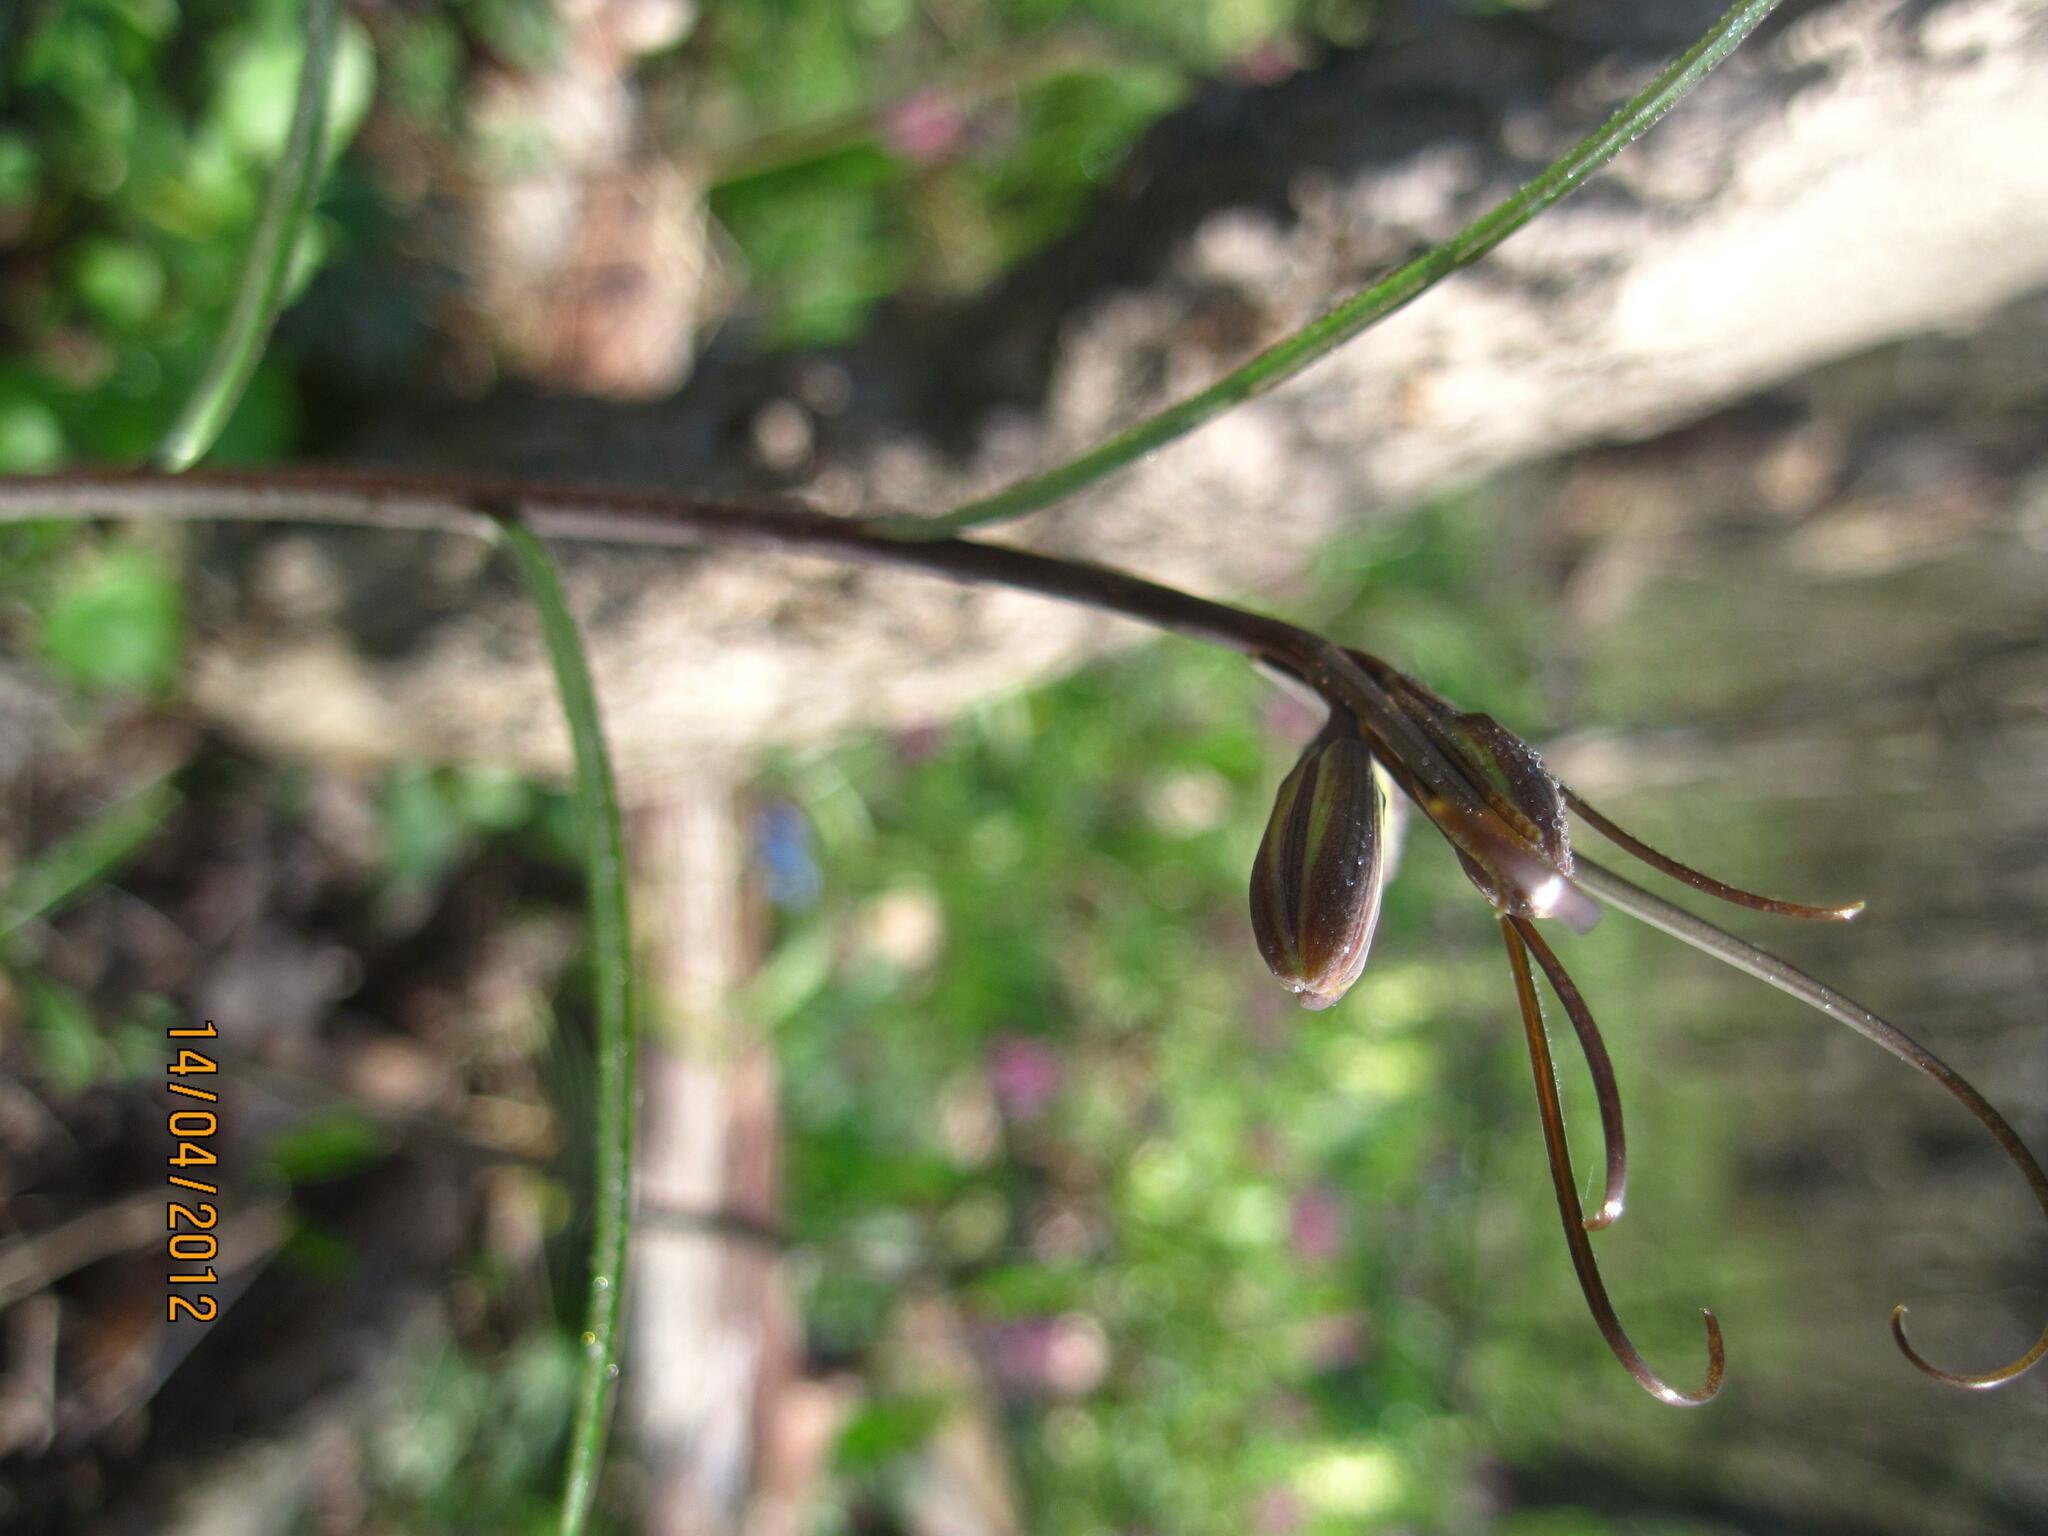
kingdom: Plantae
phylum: Tracheophyta
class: Liliopsida
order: Liliales
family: Liliaceae
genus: Fritillaria
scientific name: Fritillaria ruthenica
